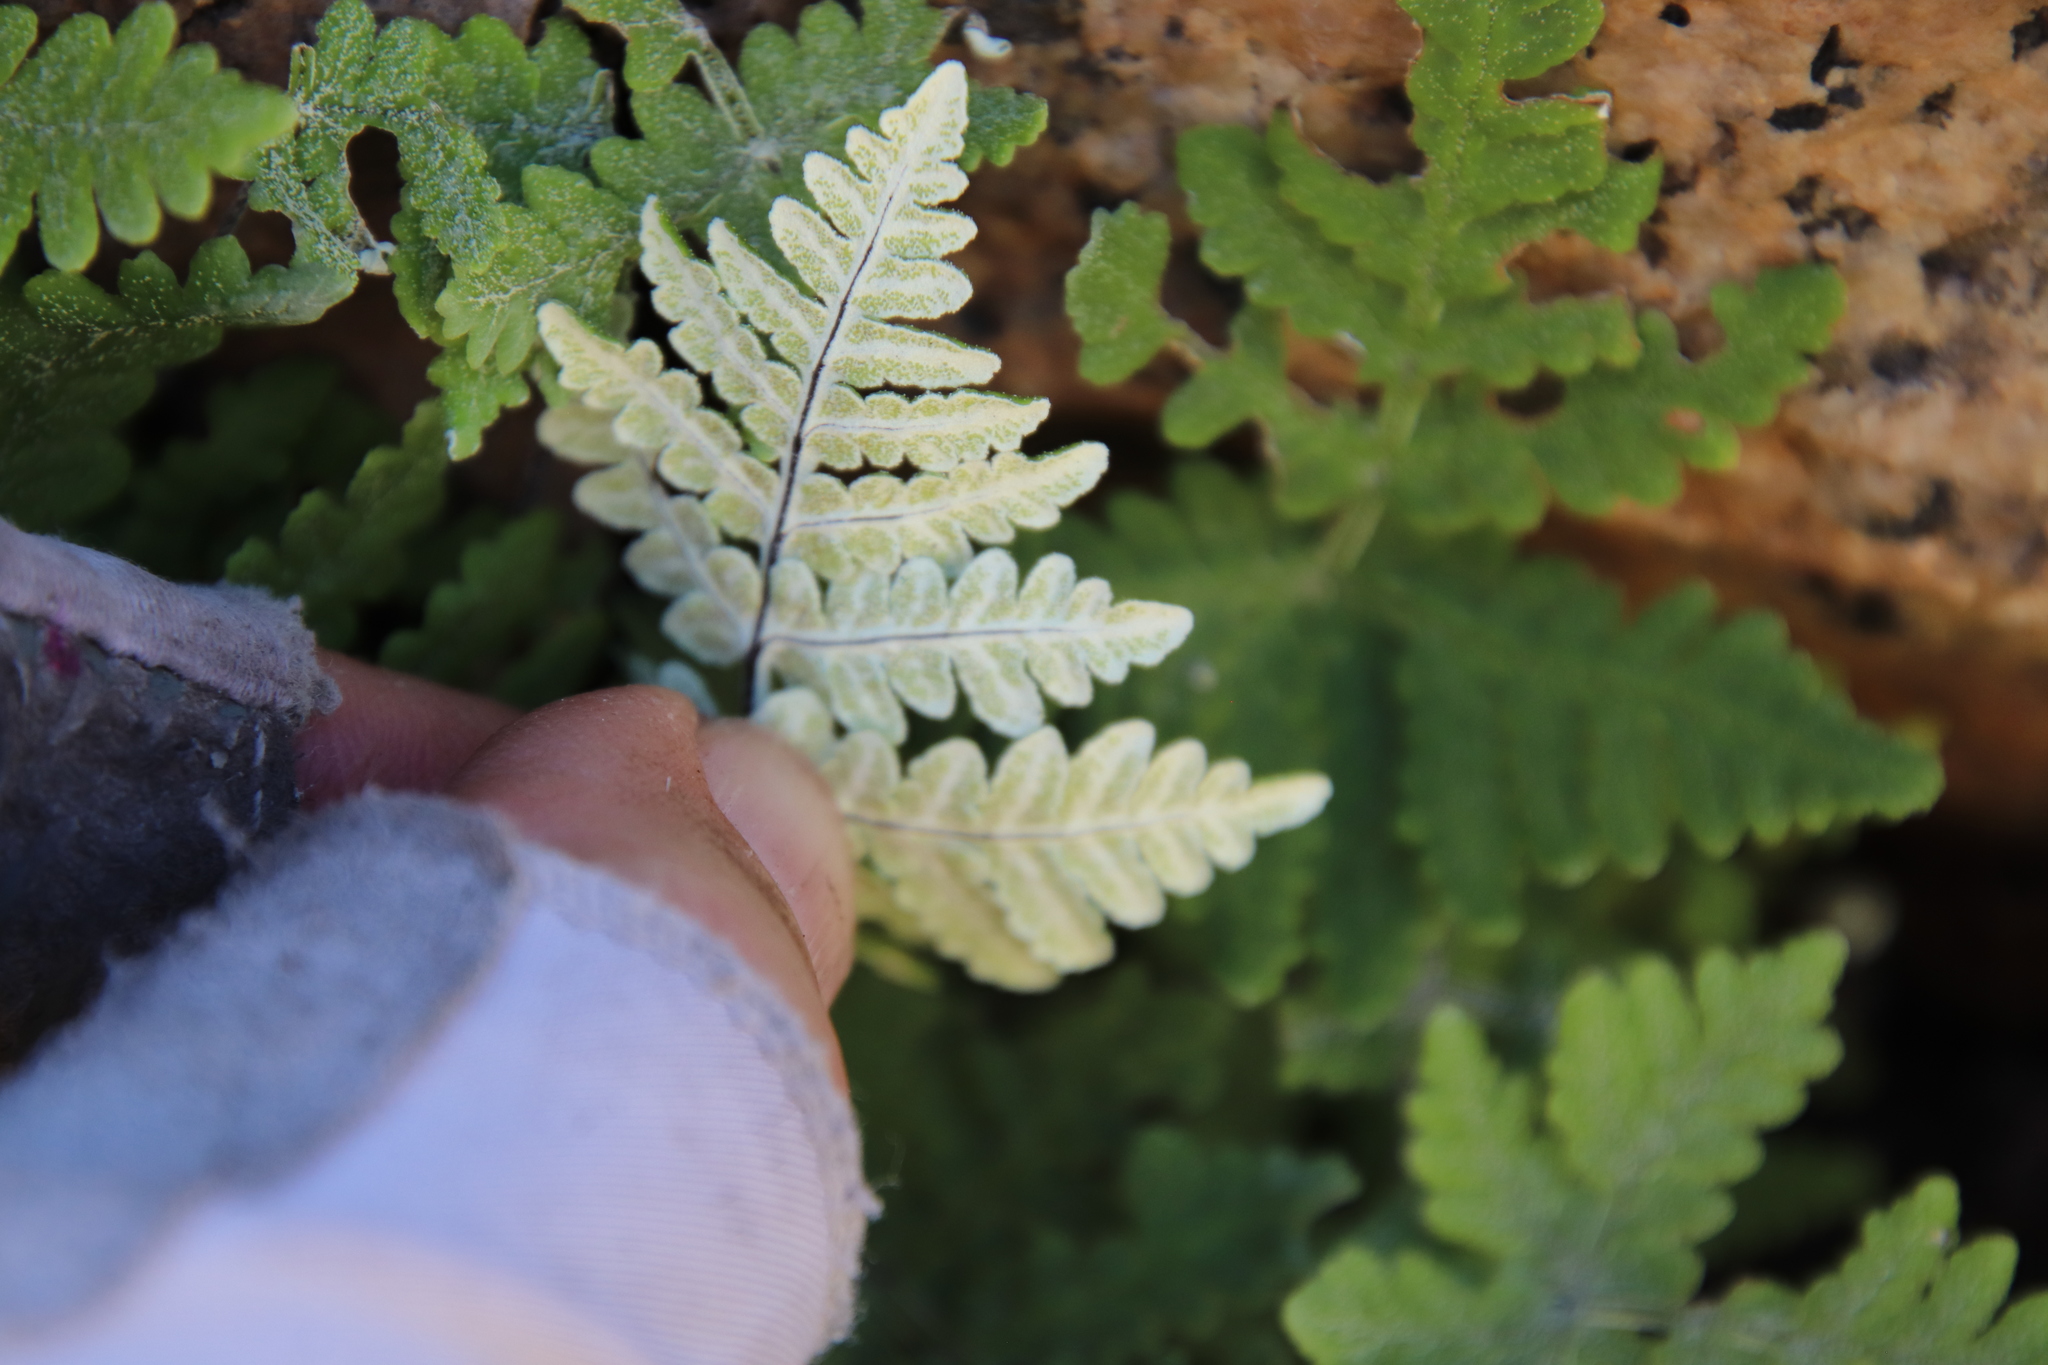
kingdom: Plantae
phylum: Tracheophyta
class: Polypodiopsida
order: Polypodiales
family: Pteridaceae
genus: Pentagramma
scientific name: Pentagramma rebmanii
